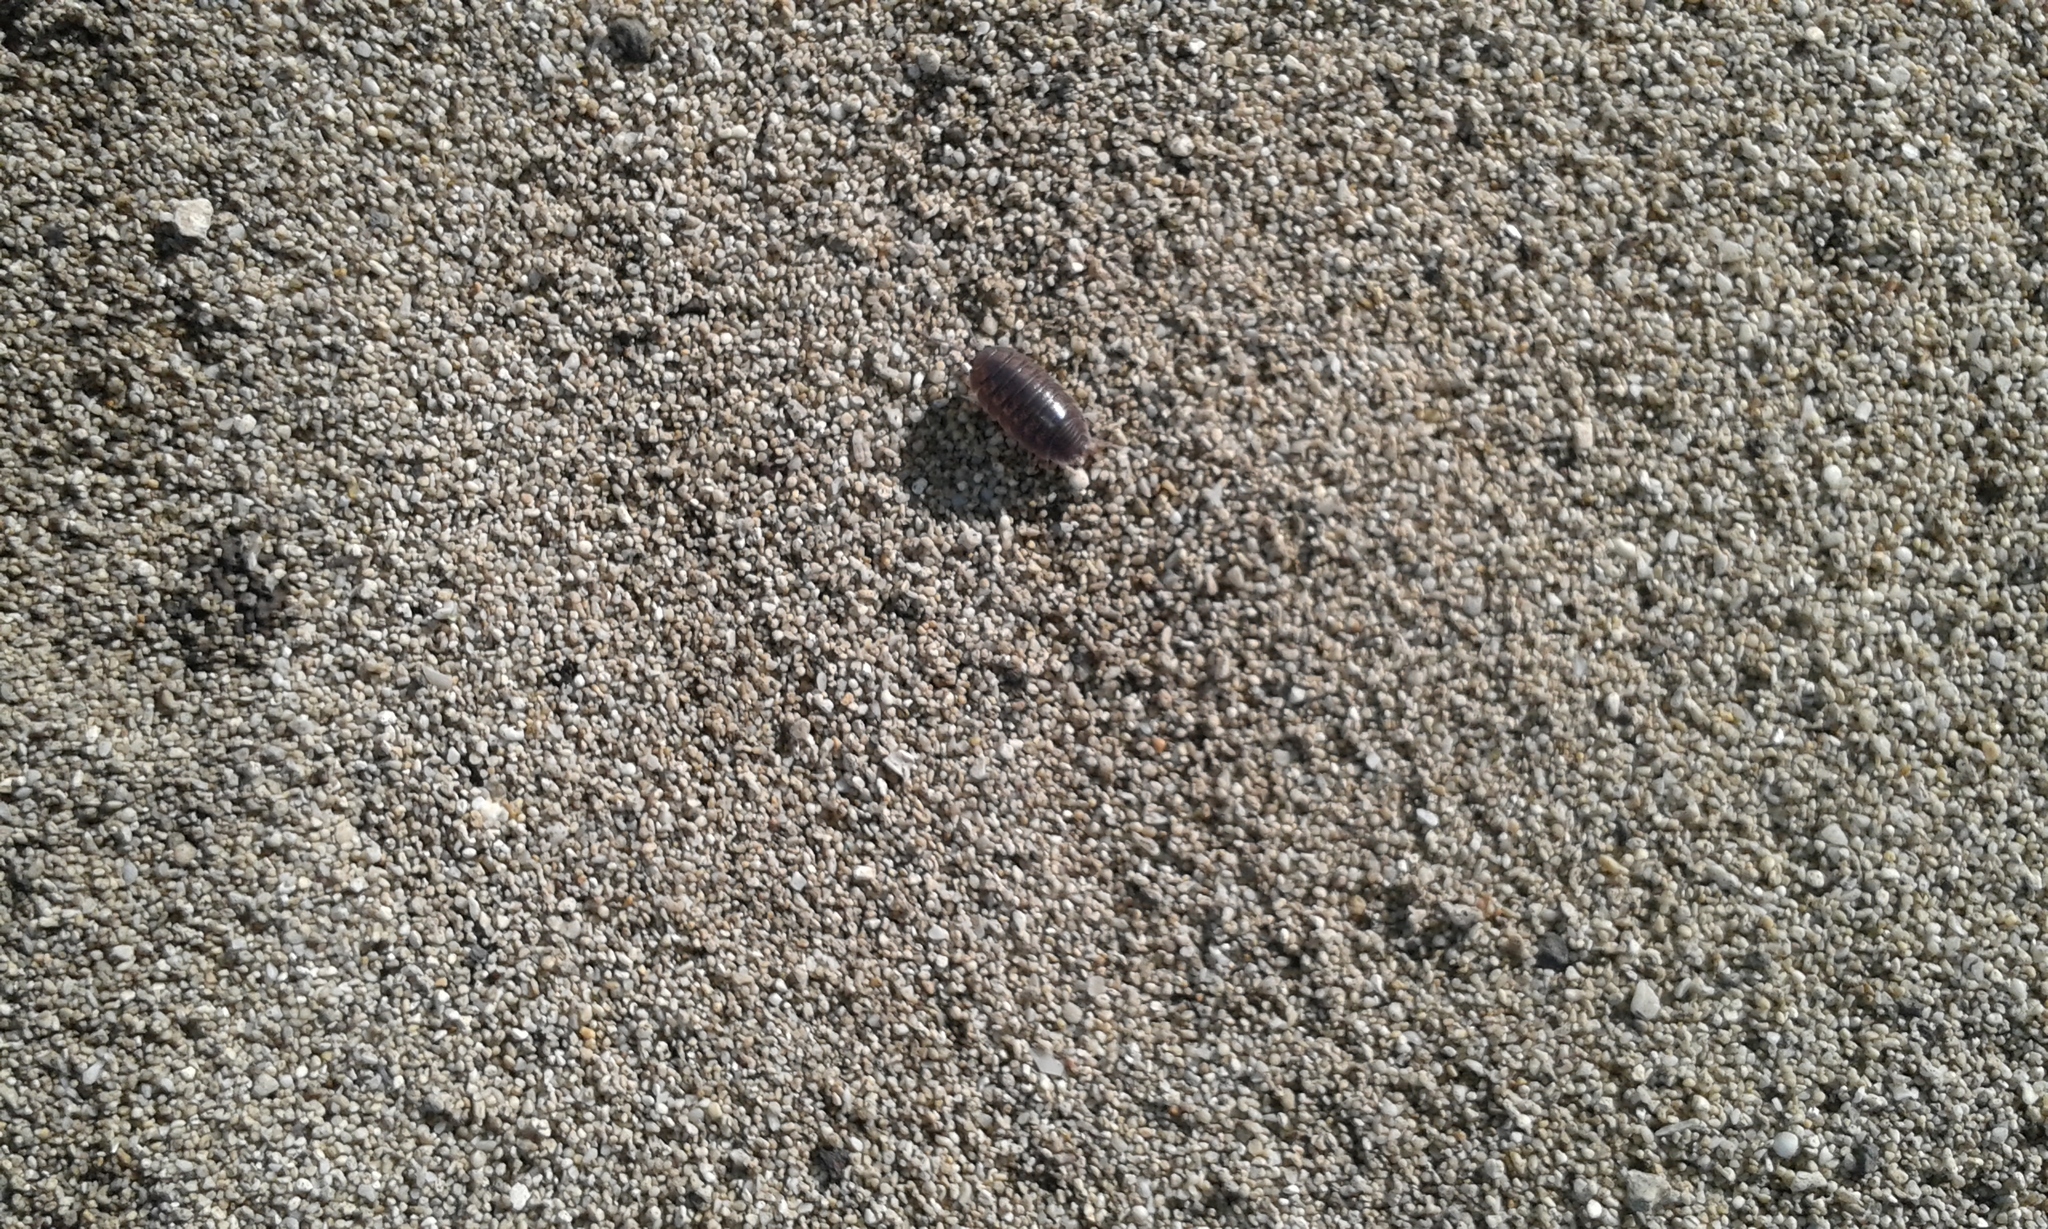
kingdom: Animalia
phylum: Arthropoda
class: Malacostraca
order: Isopoda
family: Porcellionidae
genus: Porcellio
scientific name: Porcellio laevis
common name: Swift woodlouse
